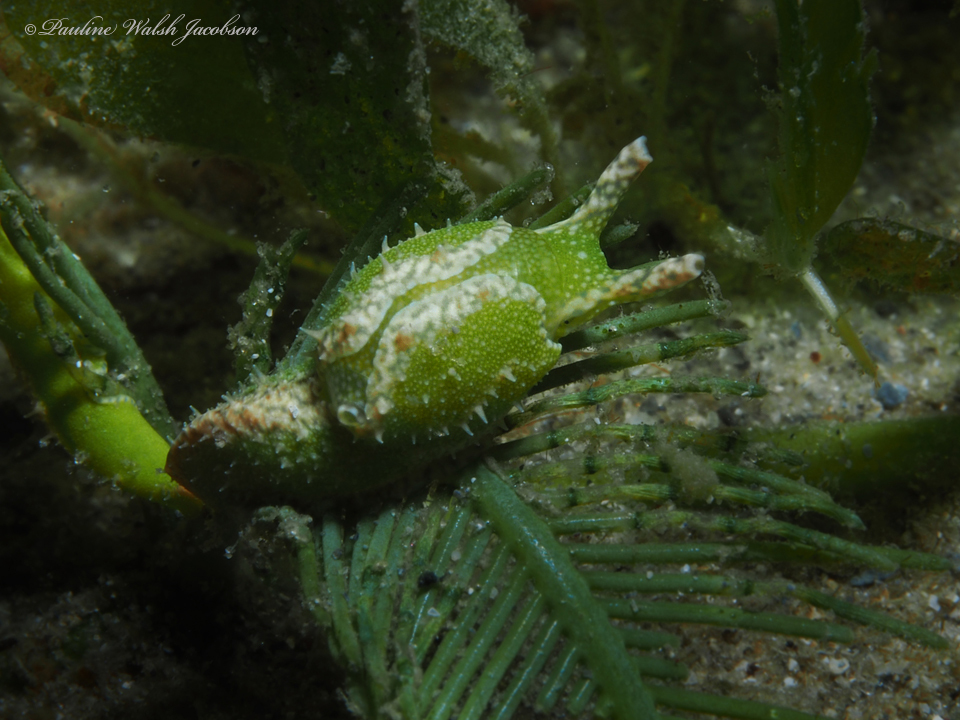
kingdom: Animalia
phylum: Mollusca
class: Gastropoda
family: Oxynoidae
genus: Oxynoe
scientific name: Oxynoe antillarum
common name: Antilles oxynoe
